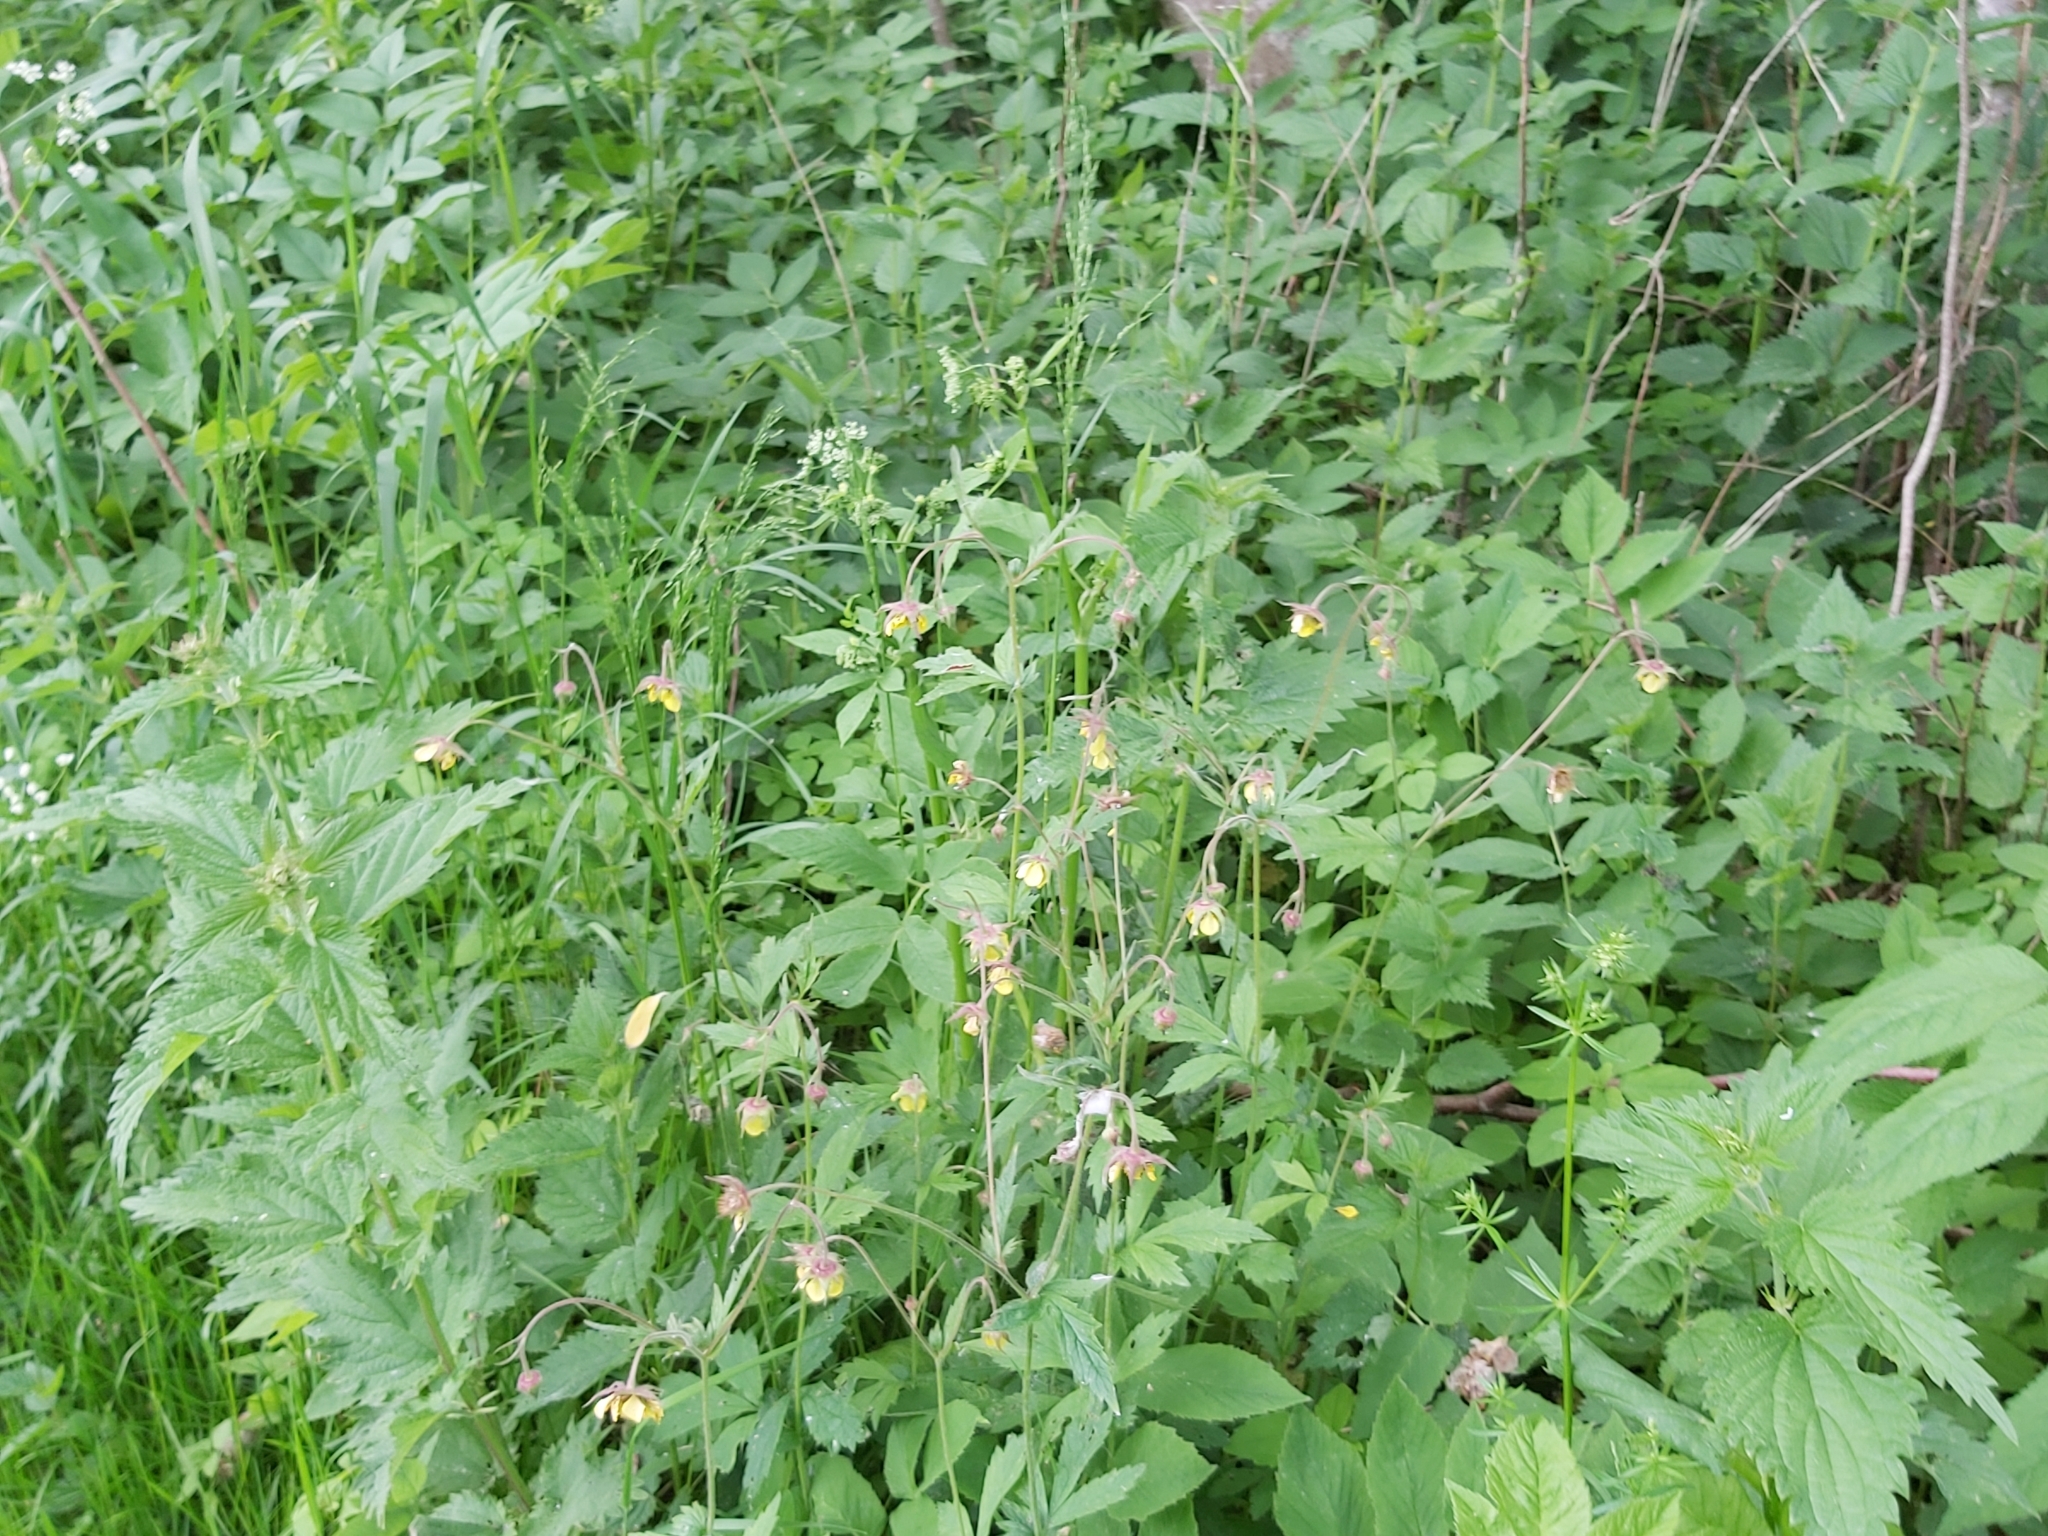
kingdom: Plantae
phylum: Tracheophyta
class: Magnoliopsida
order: Rosales
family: Rosaceae
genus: Geum
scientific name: Geum urbanum
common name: Wood avens
